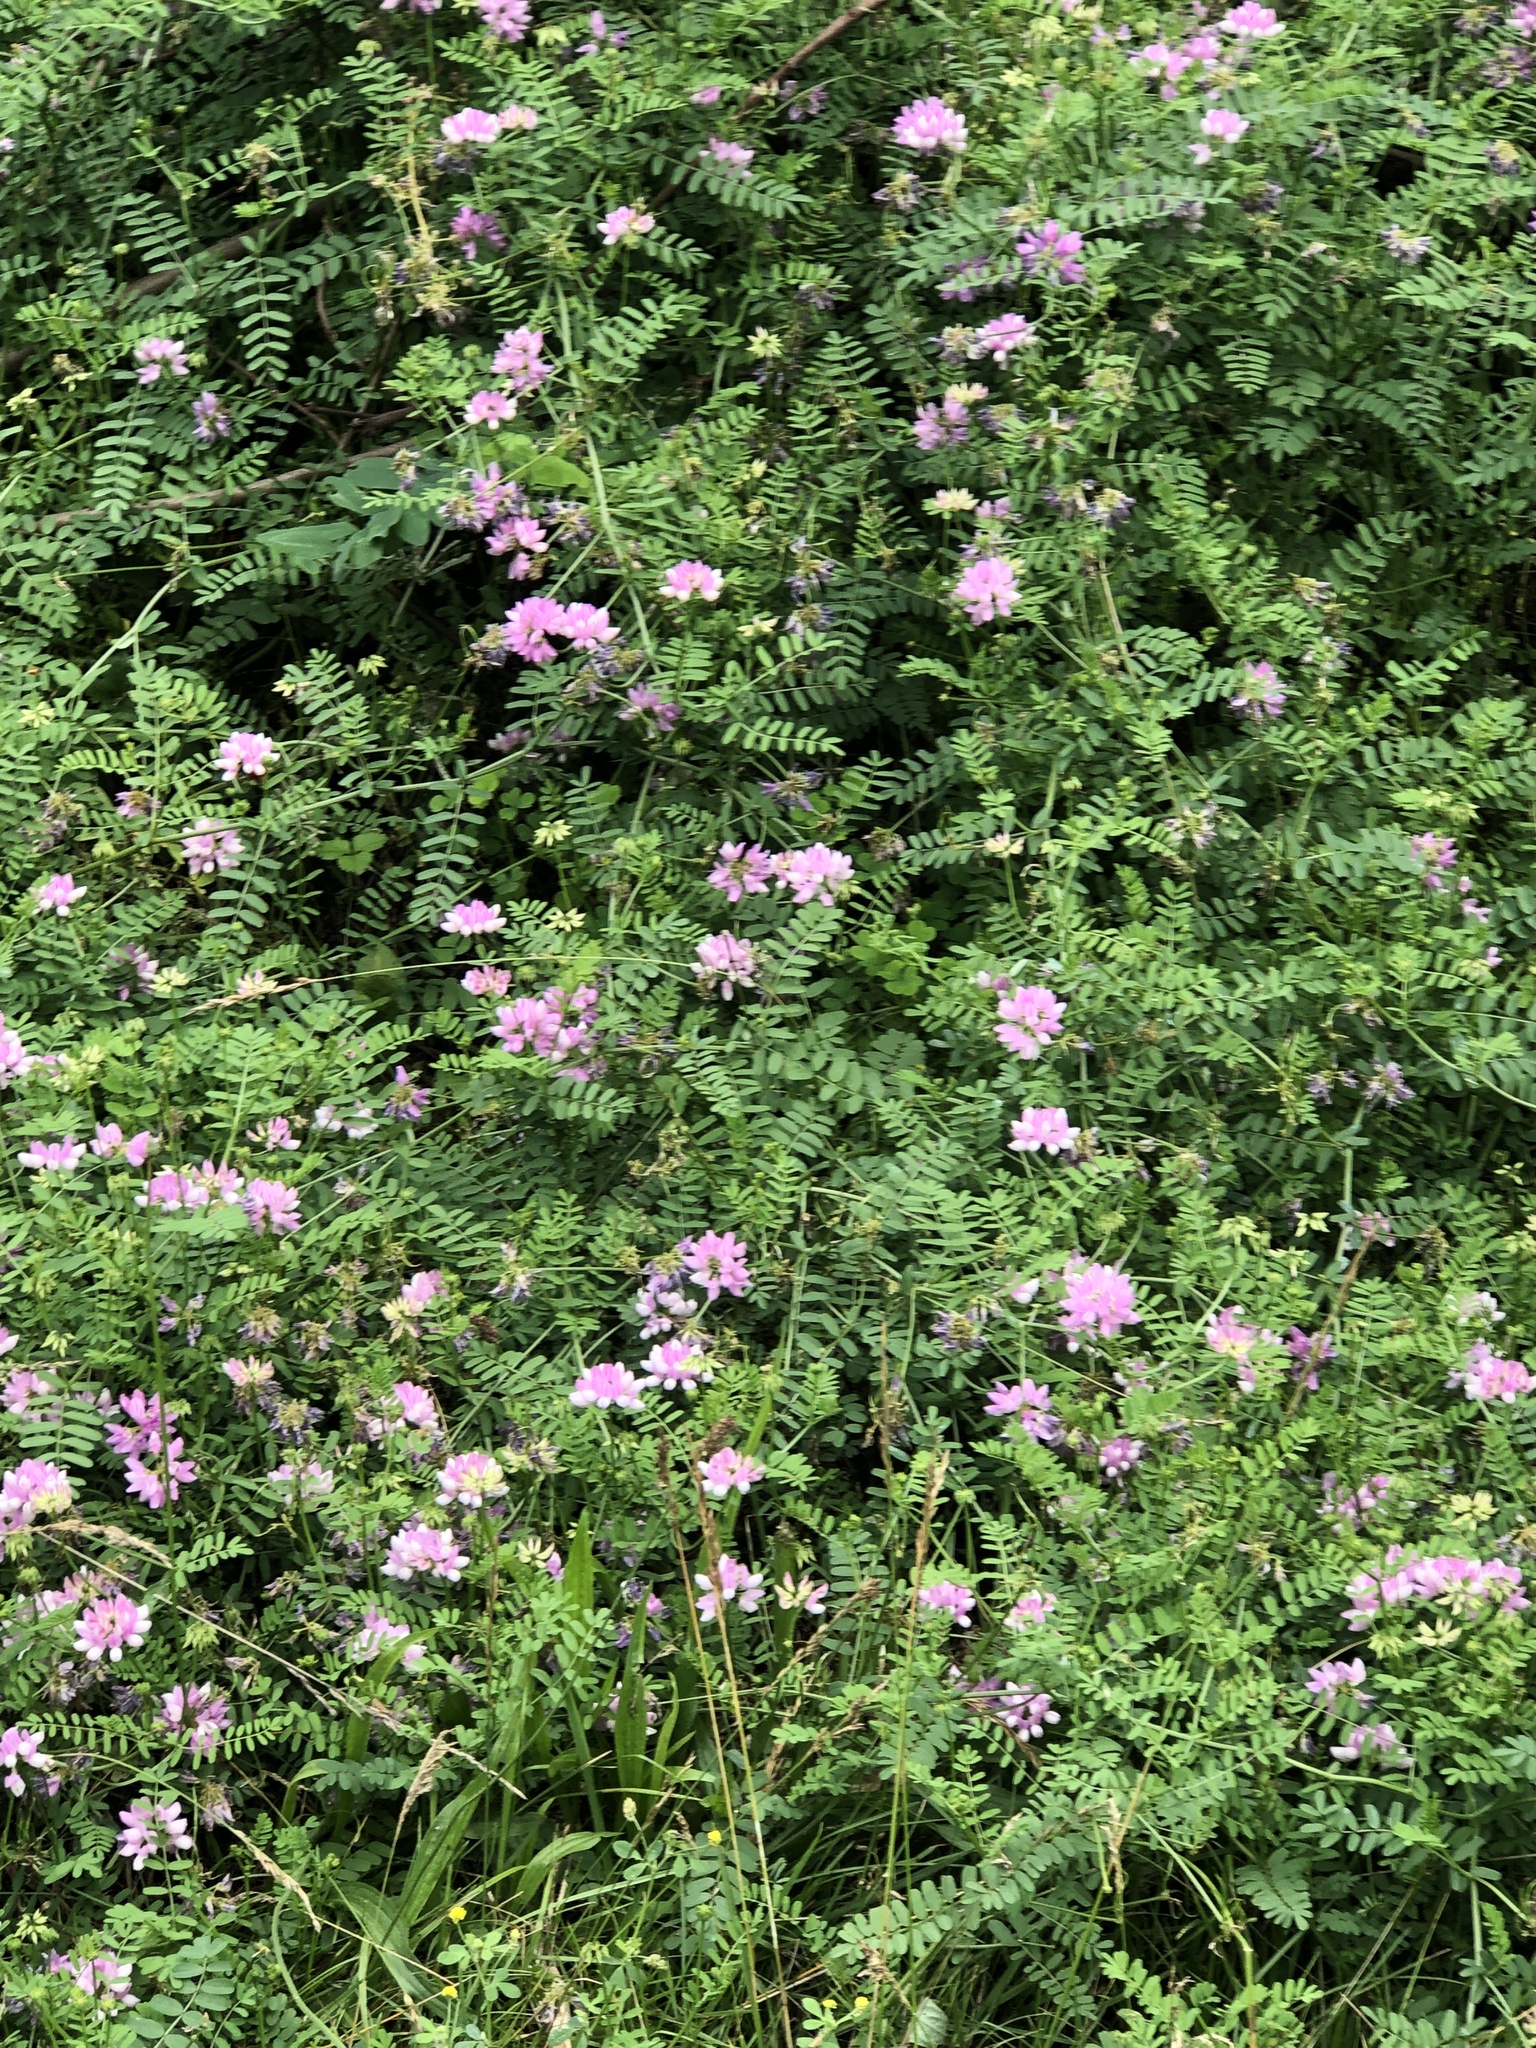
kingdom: Plantae
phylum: Tracheophyta
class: Magnoliopsida
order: Fabales
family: Fabaceae
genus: Coronilla
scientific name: Coronilla varia
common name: Crownvetch
